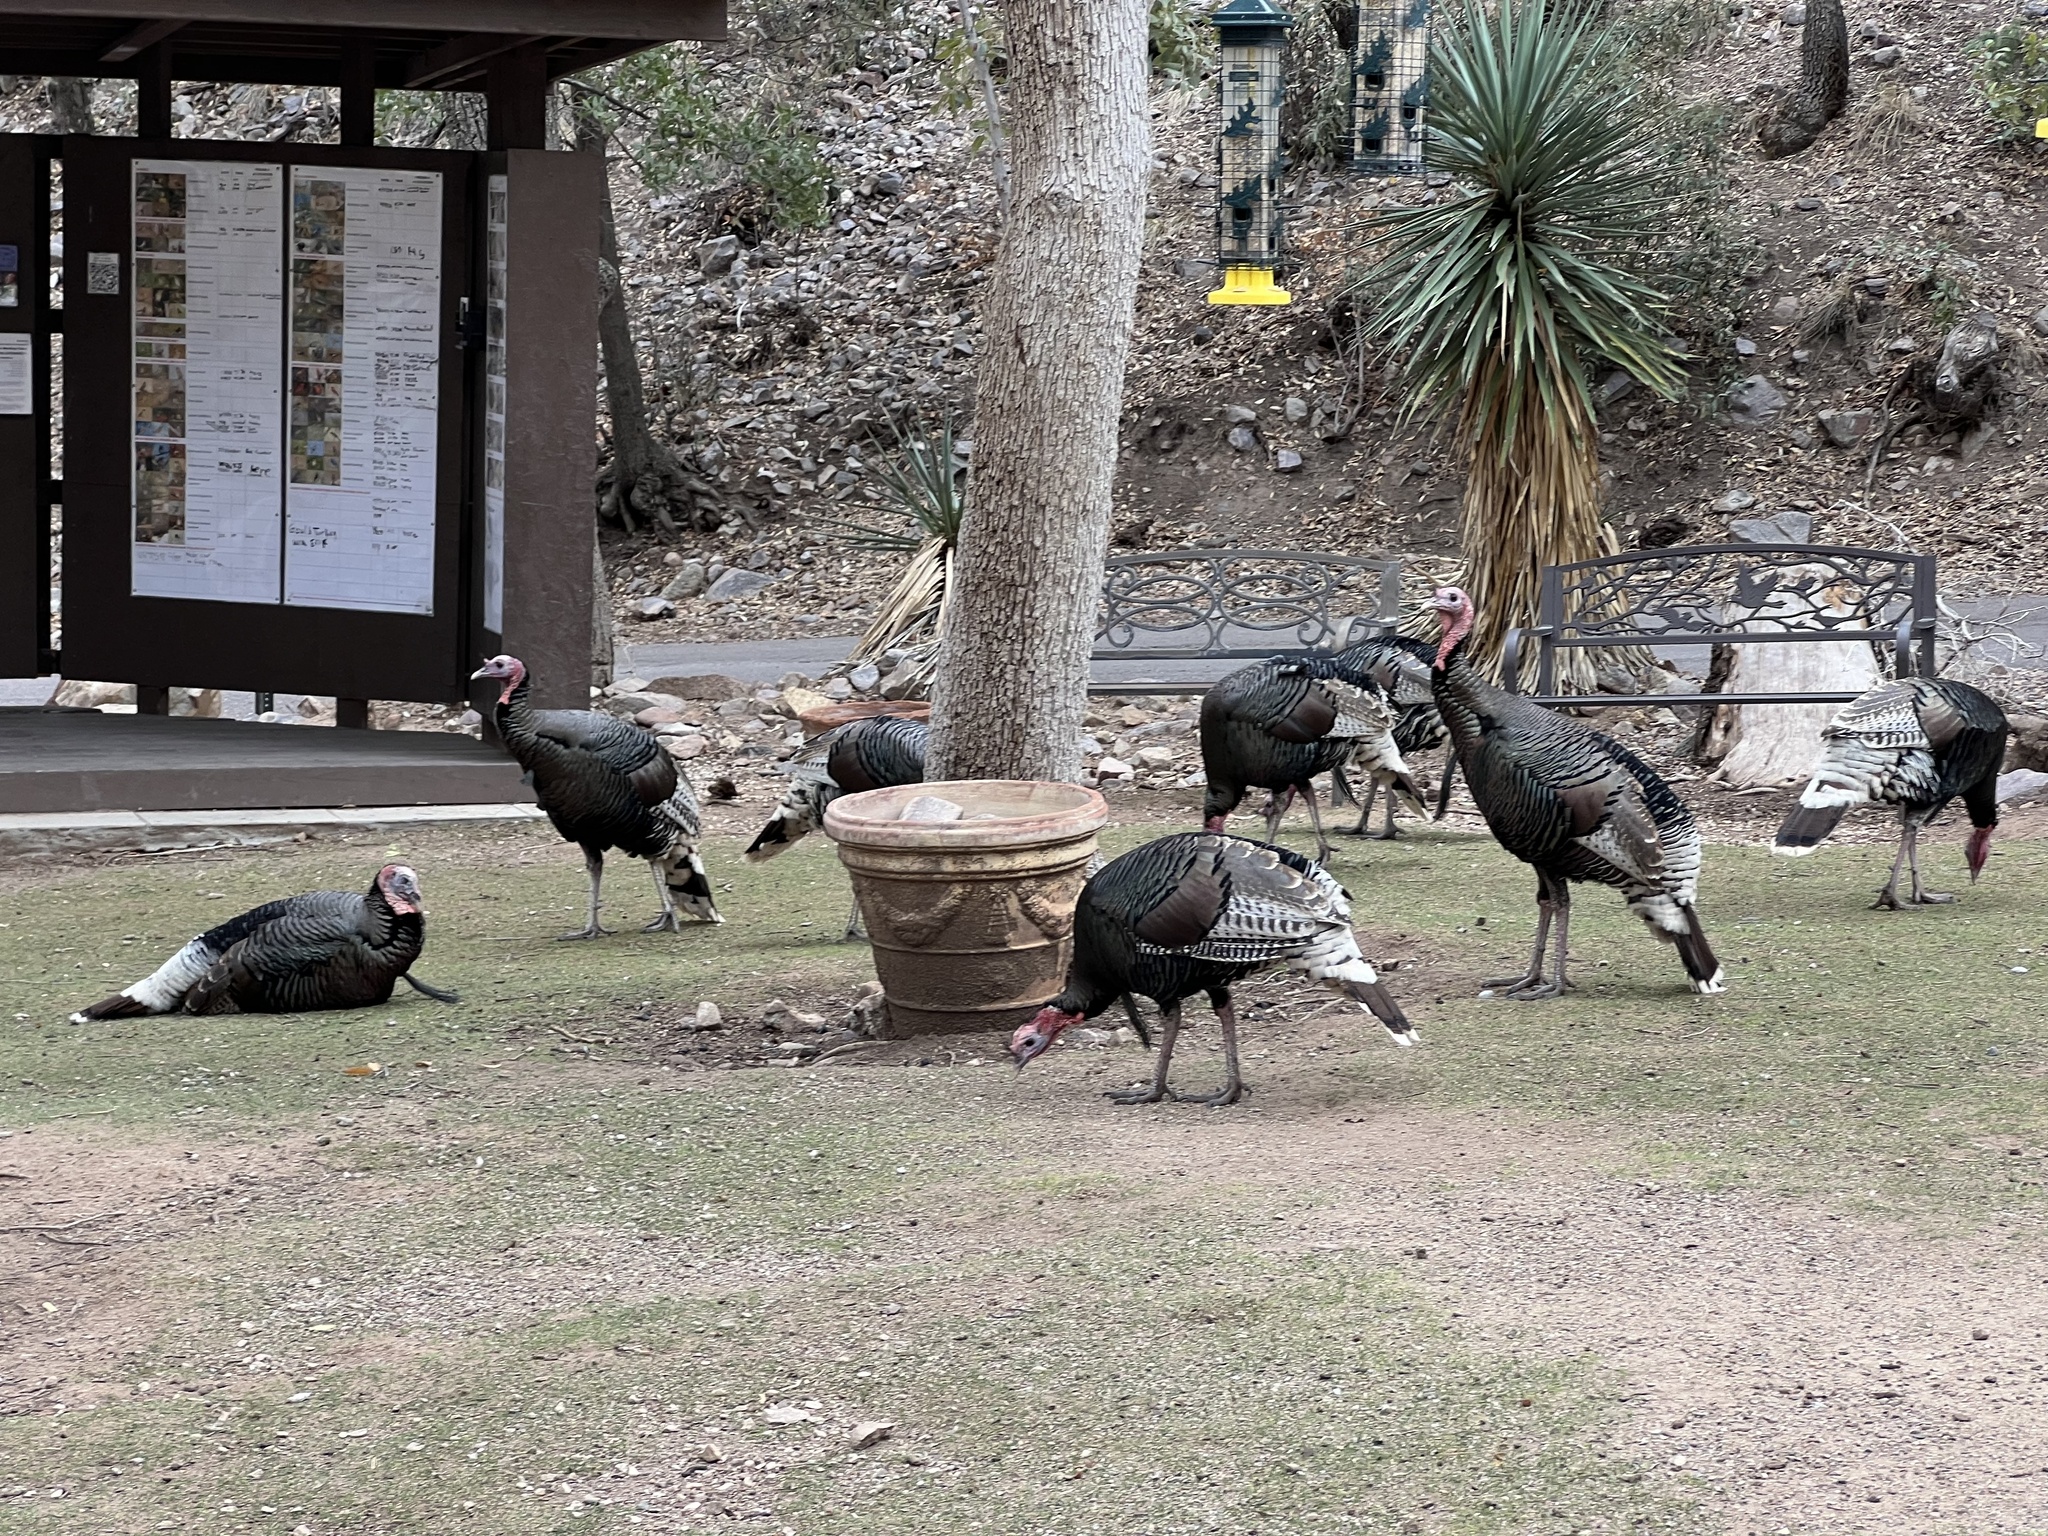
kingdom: Animalia
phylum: Chordata
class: Aves
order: Galliformes
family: Phasianidae
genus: Meleagris
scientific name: Meleagris gallopavo
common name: Wild turkey
